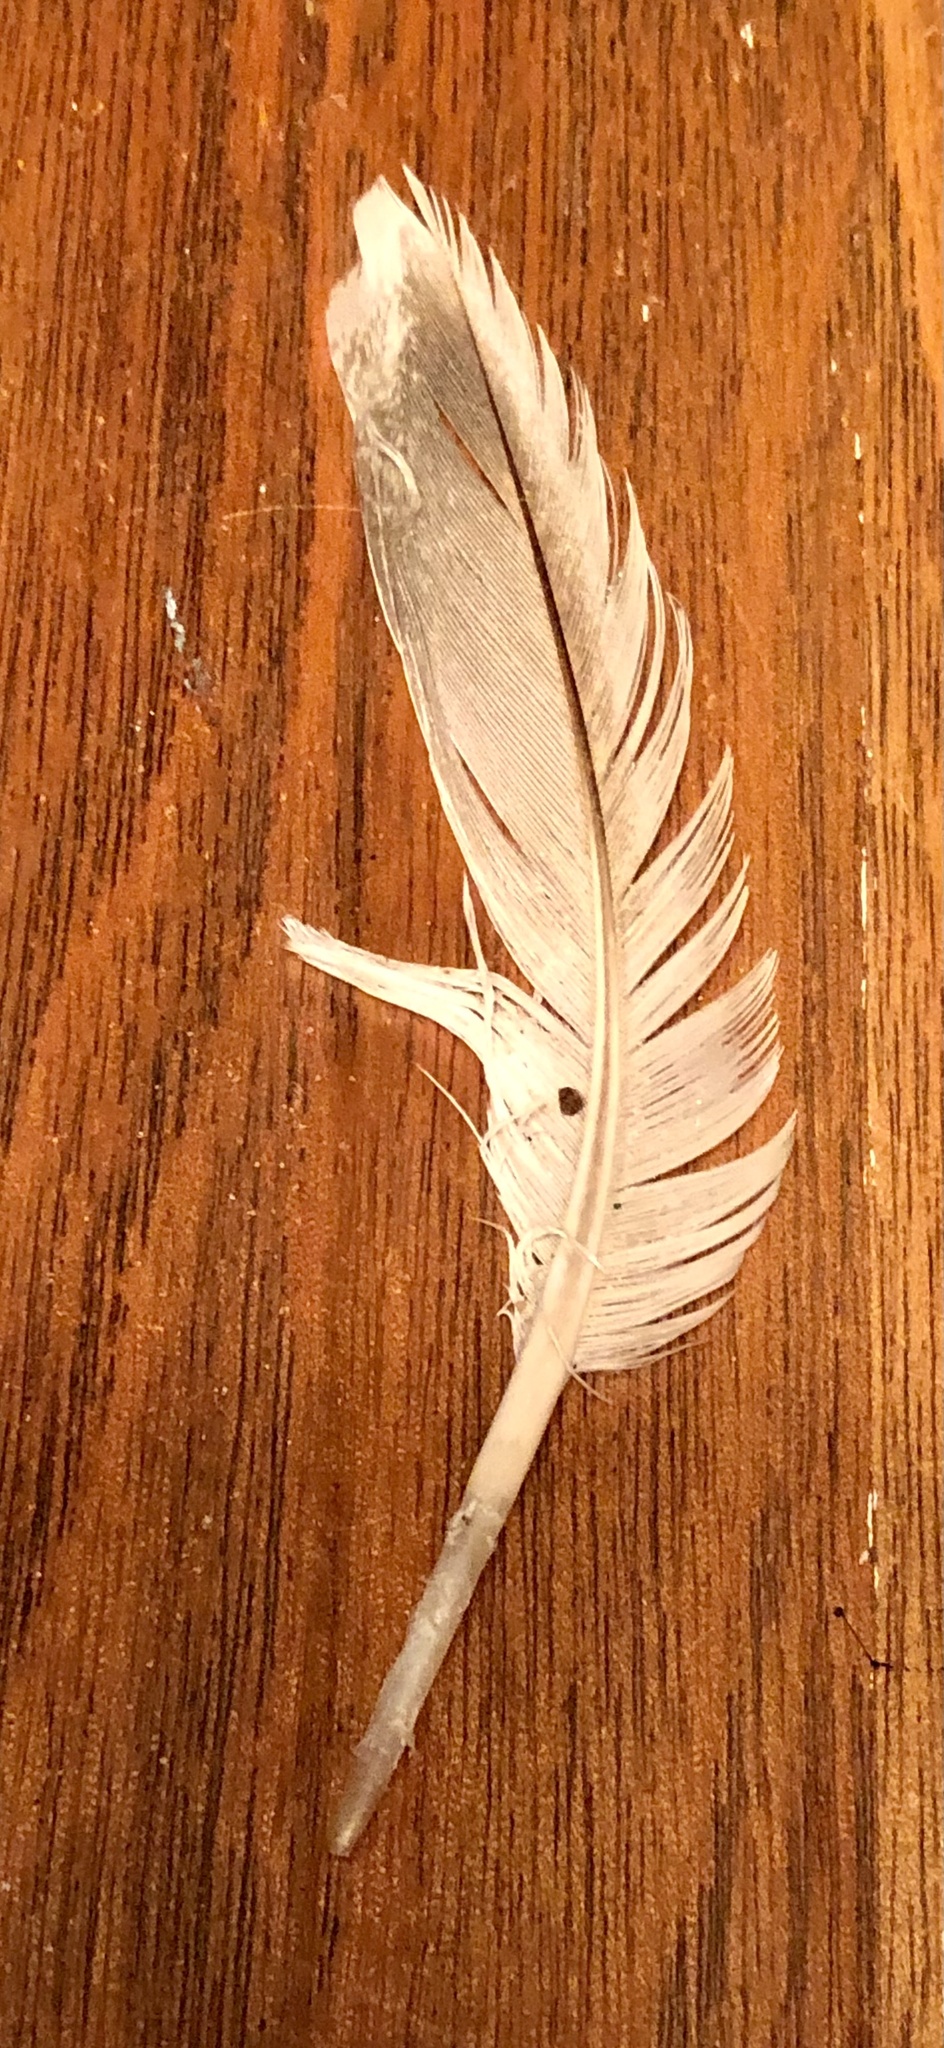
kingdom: Animalia
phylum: Chordata
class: Aves
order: Anseriformes
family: Anatidae
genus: Anas
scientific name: Anas platyrhynchos
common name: Mallard
